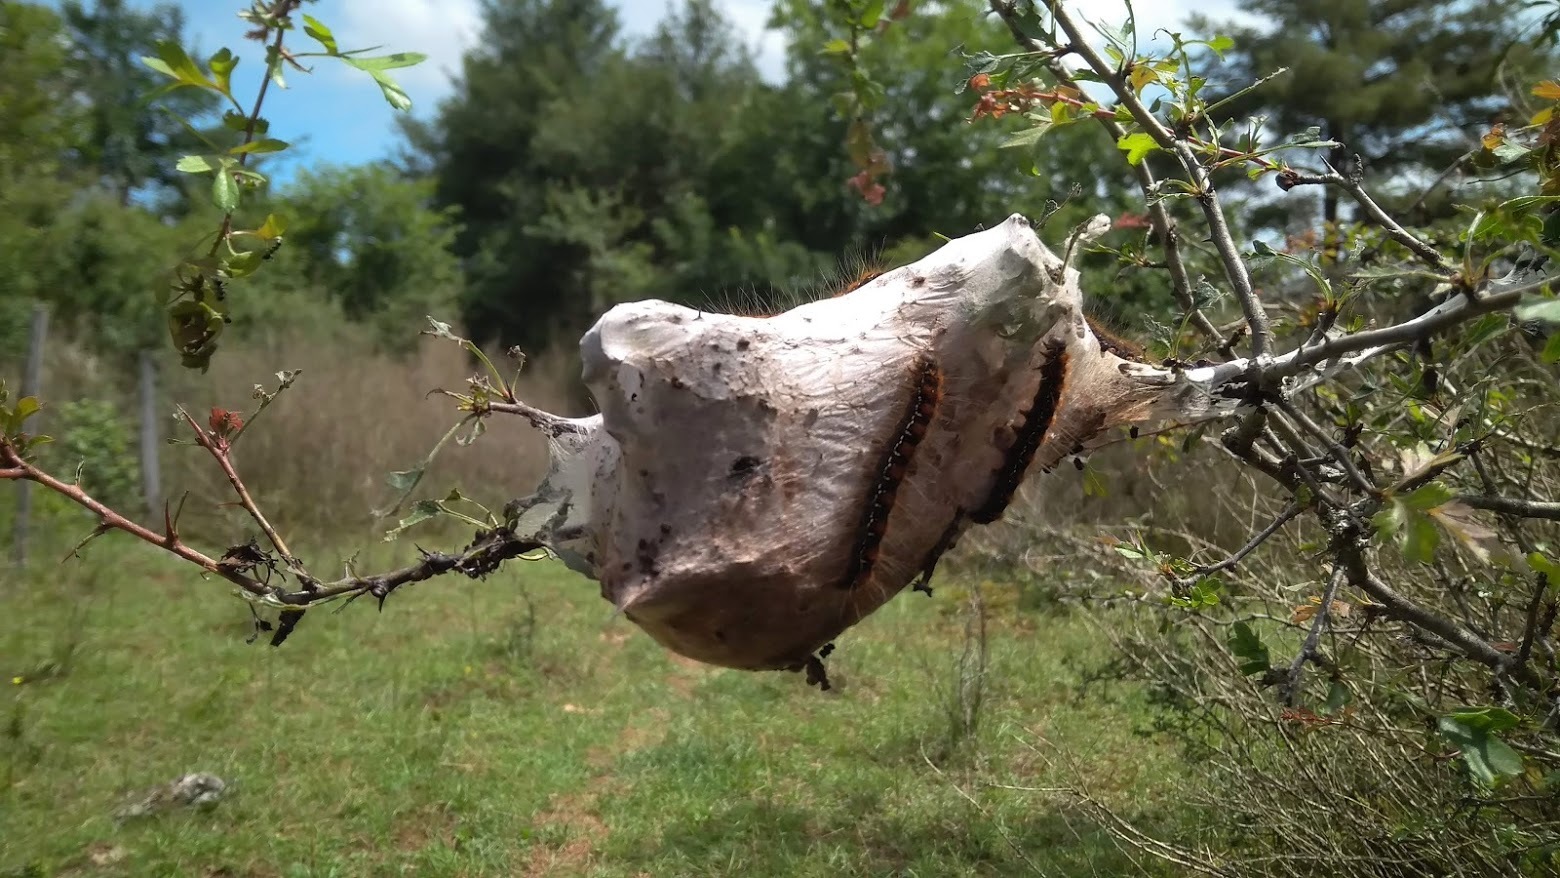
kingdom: Animalia
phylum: Arthropoda
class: Insecta
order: Lepidoptera
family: Lasiocampidae
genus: Eriogaster
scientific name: Eriogaster lanestris
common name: Small eggar
